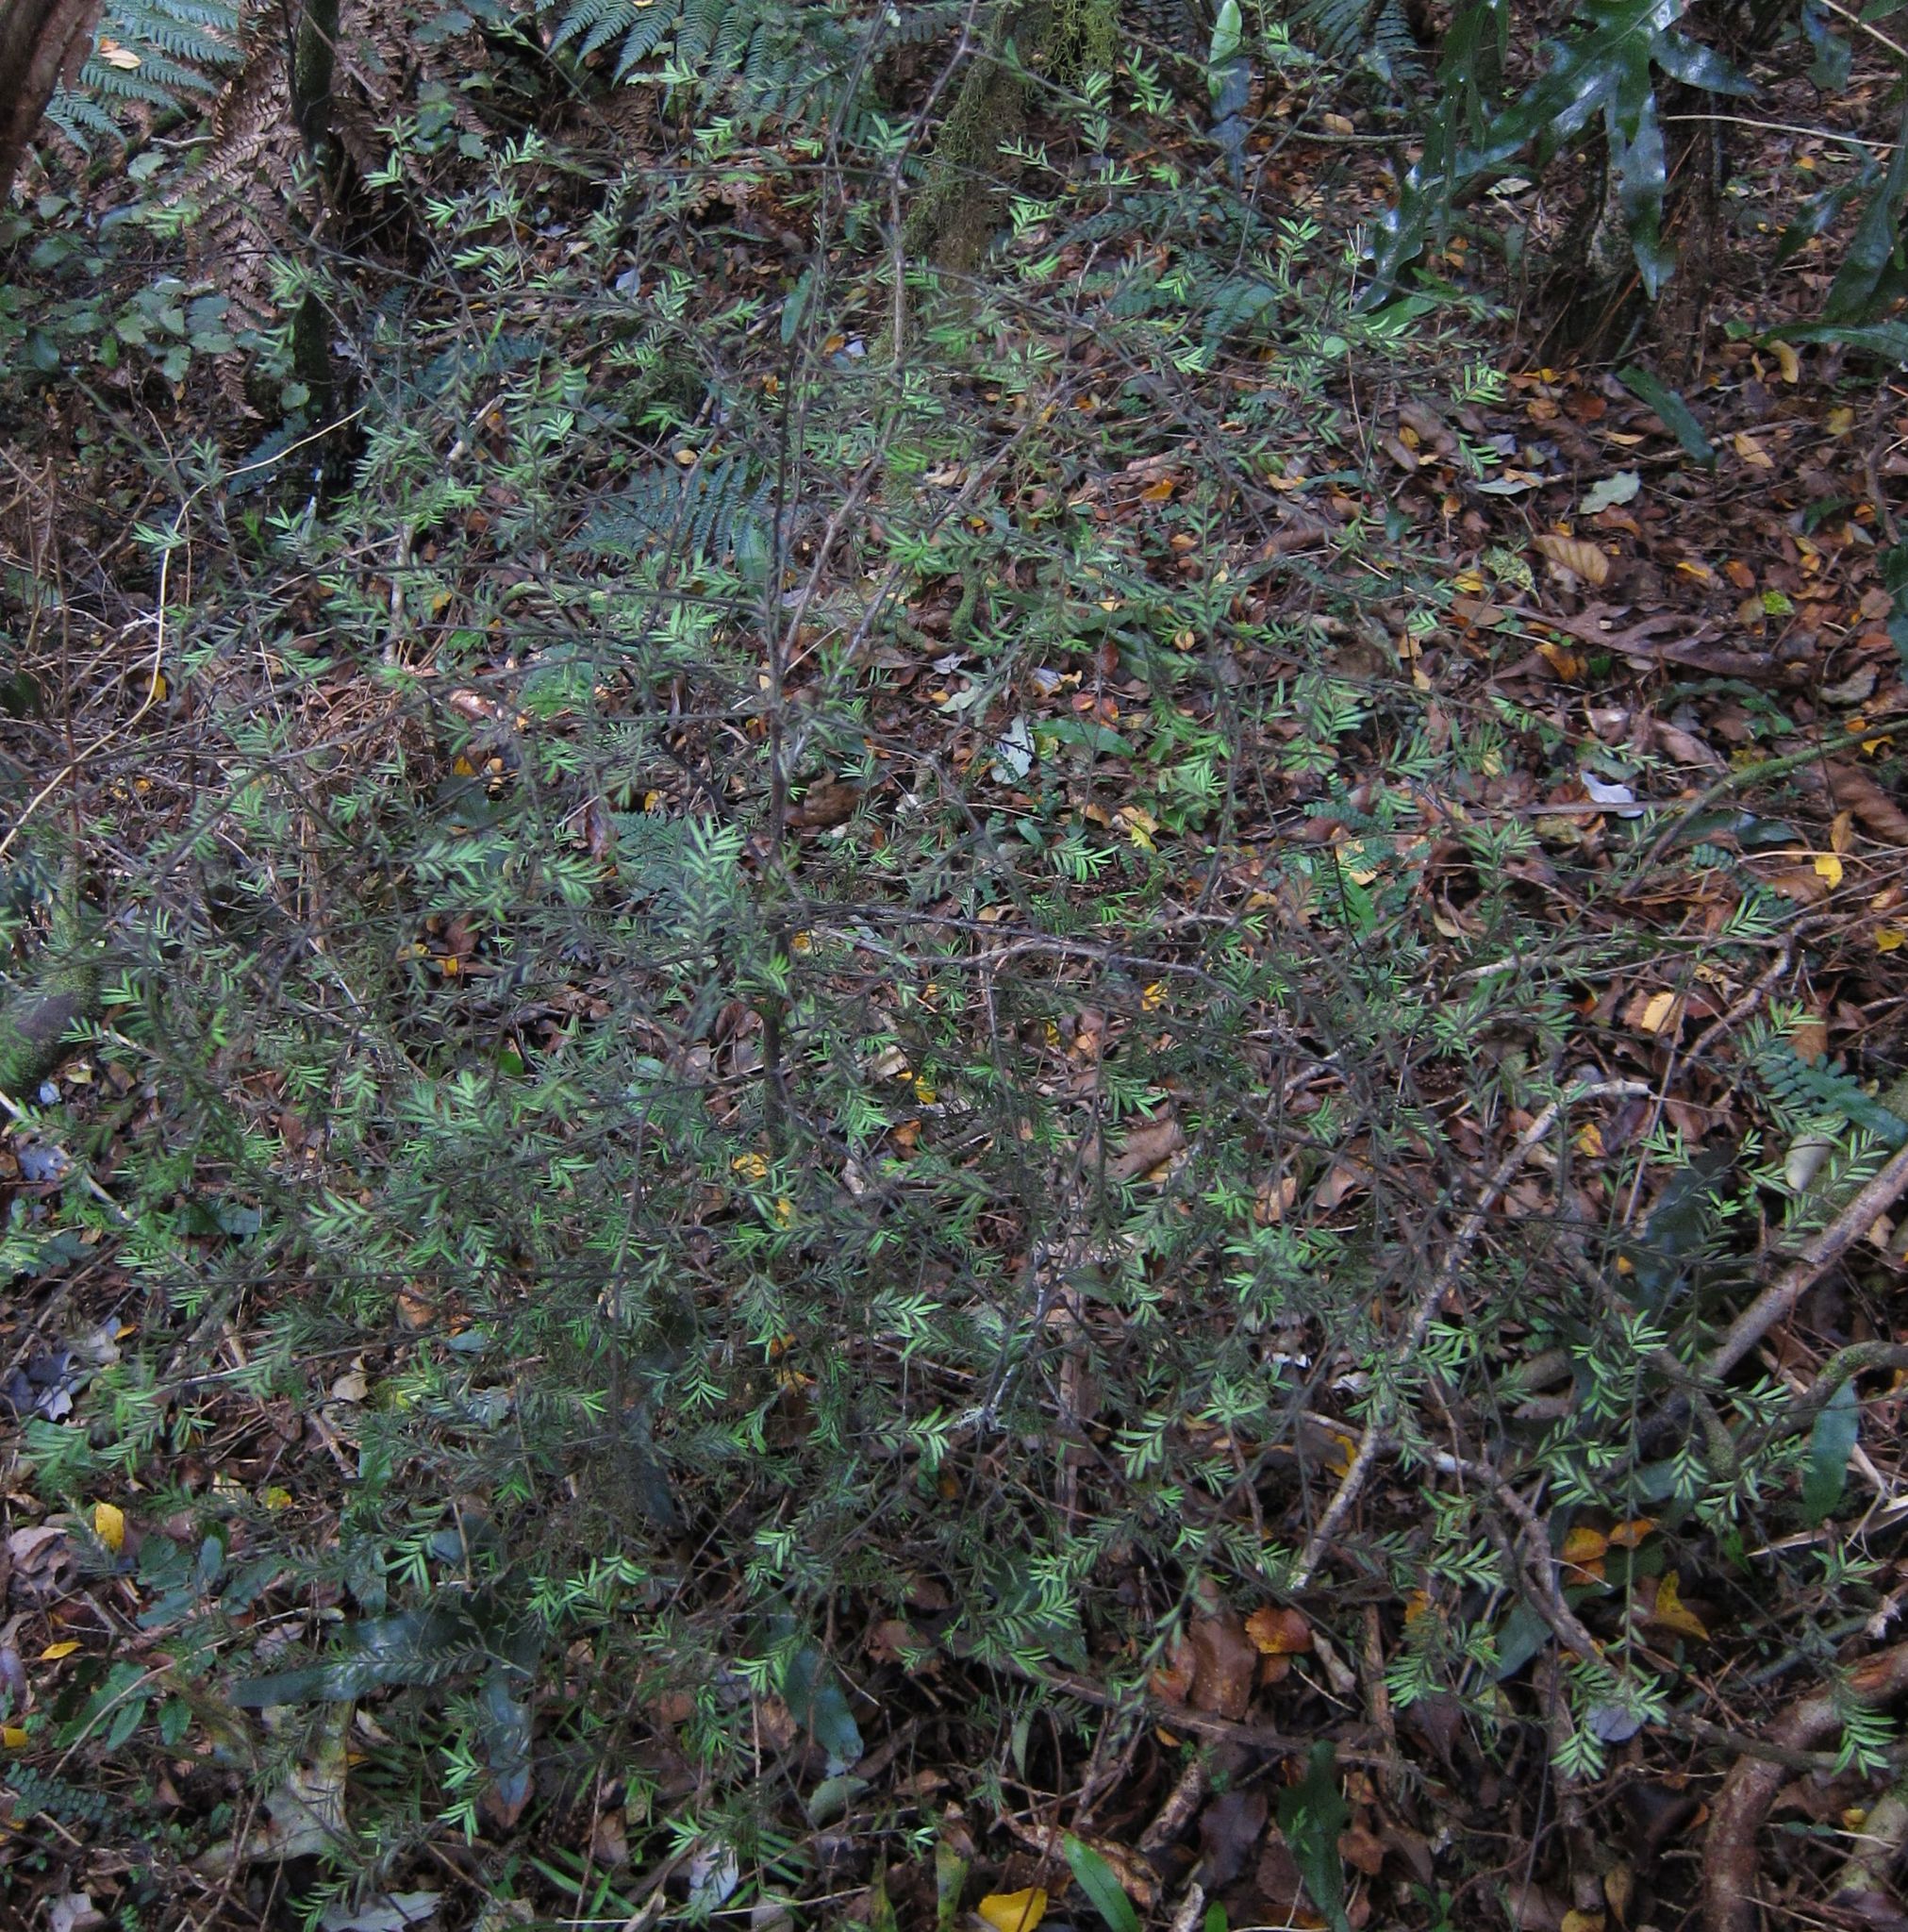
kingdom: Plantae
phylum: Tracheophyta
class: Pinopsida
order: Pinales
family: Podocarpaceae
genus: Prumnopitys
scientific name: Prumnopitys taxifolia
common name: Matai
